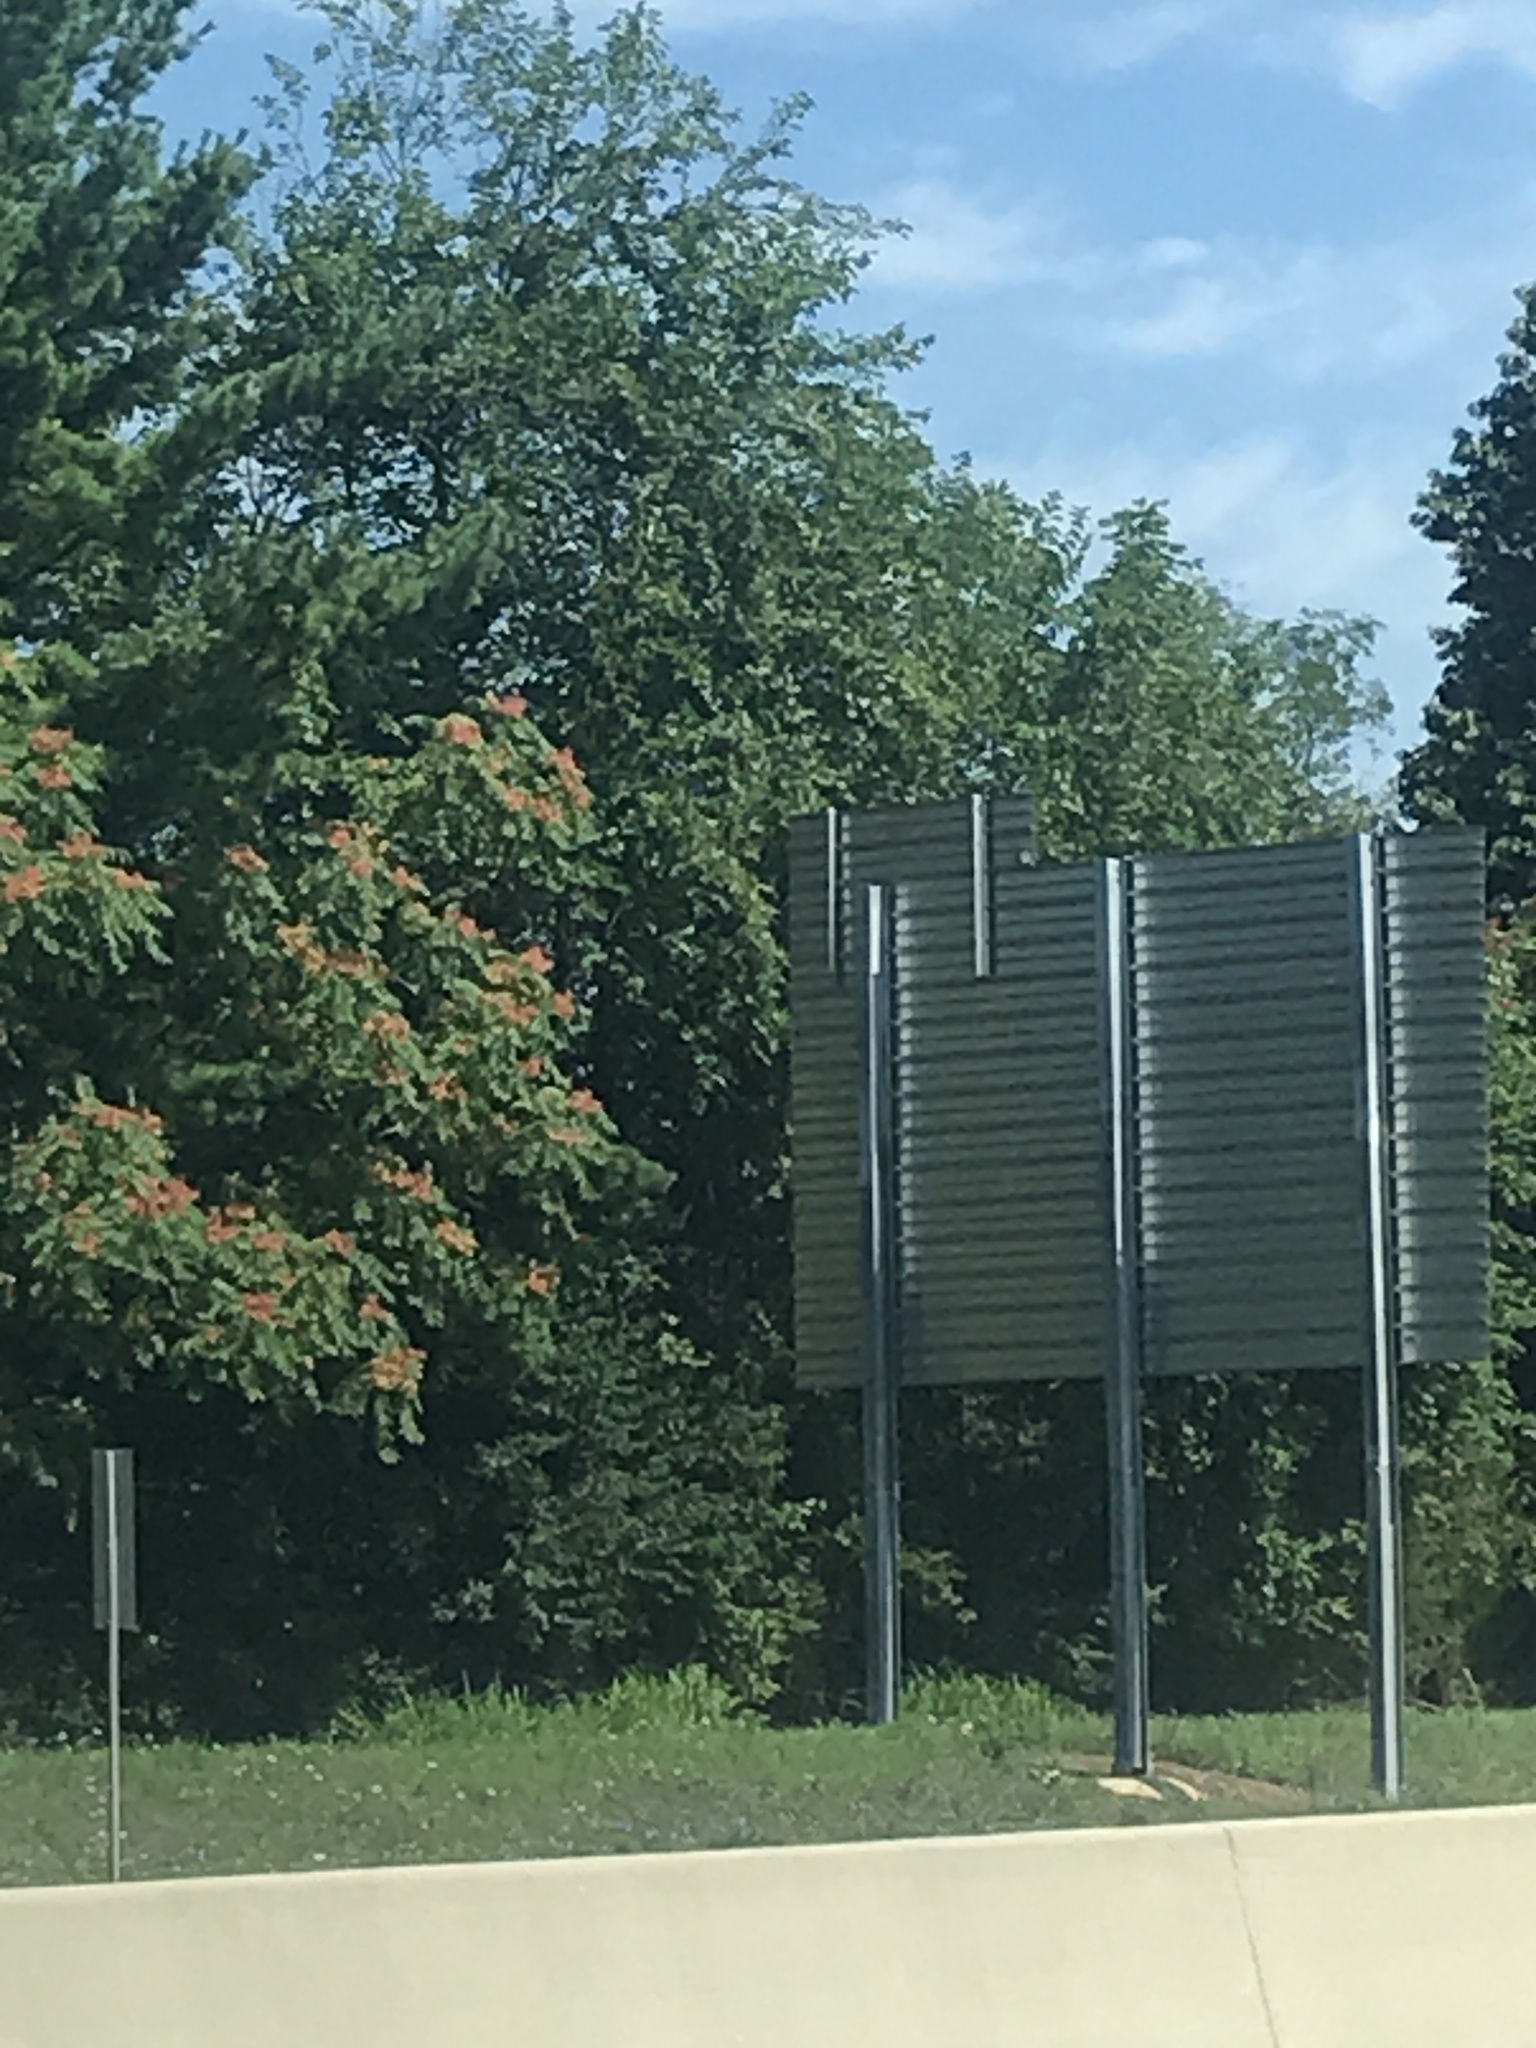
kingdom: Plantae
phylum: Tracheophyta
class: Magnoliopsida
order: Sapindales
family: Simaroubaceae
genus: Ailanthus
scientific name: Ailanthus altissima
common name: Tree-of-heaven
